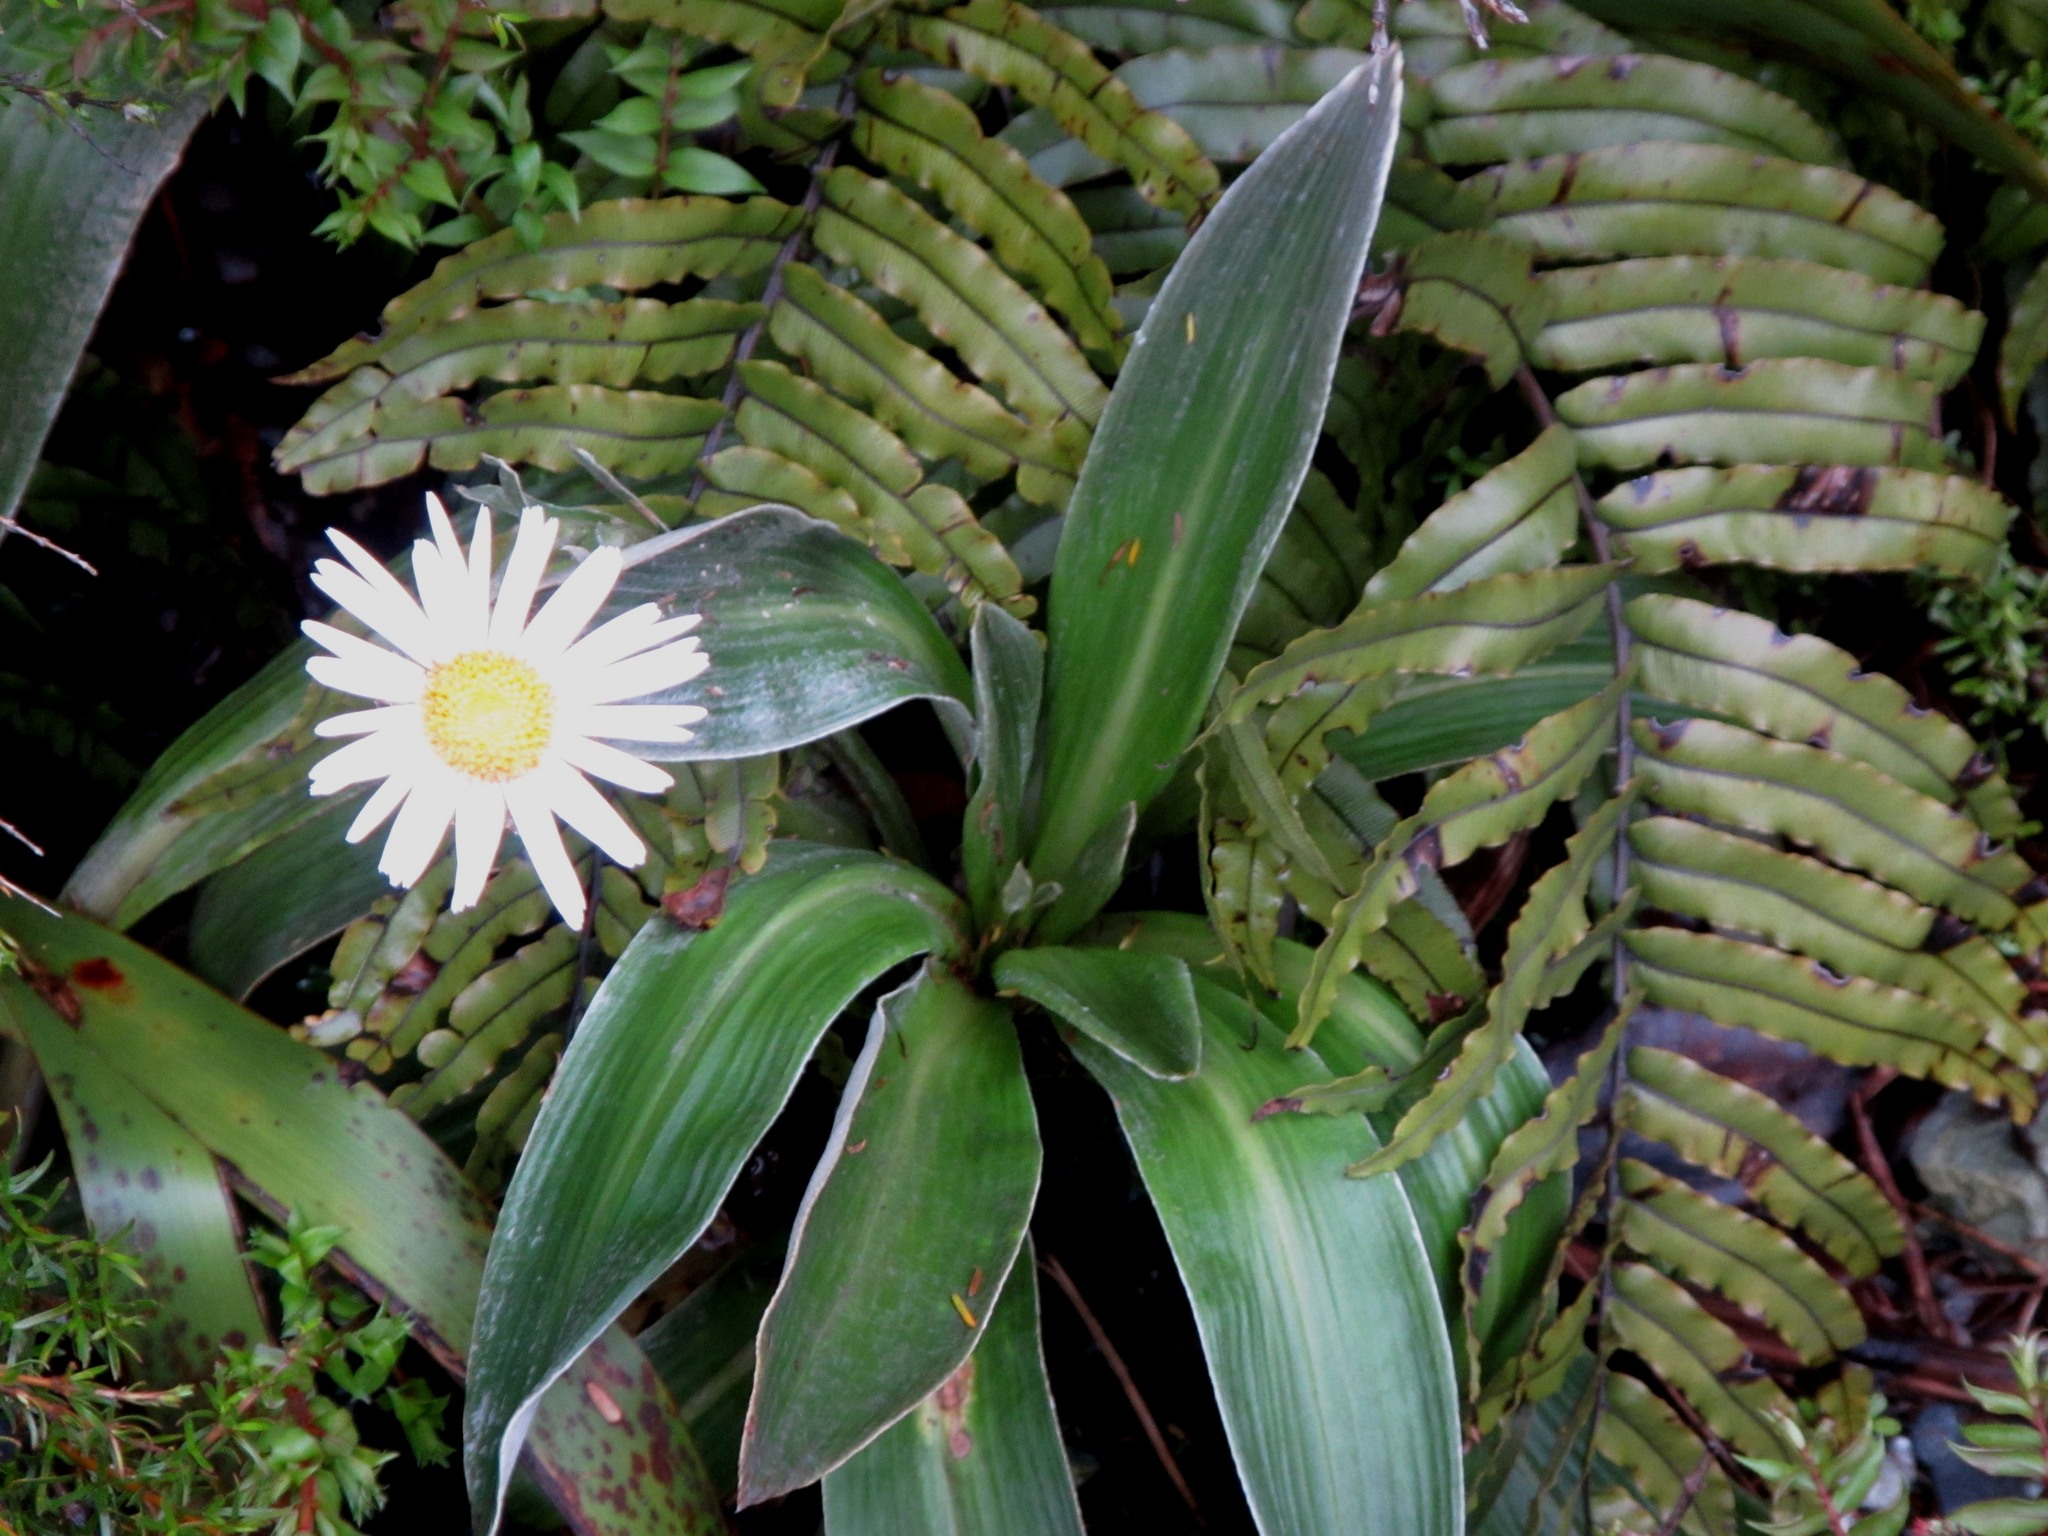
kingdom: Plantae
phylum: Tracheophyta
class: Magnoliopsida
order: Asterales
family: Asteraceae
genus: Celmisia
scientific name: Celmisia verbascifolia
